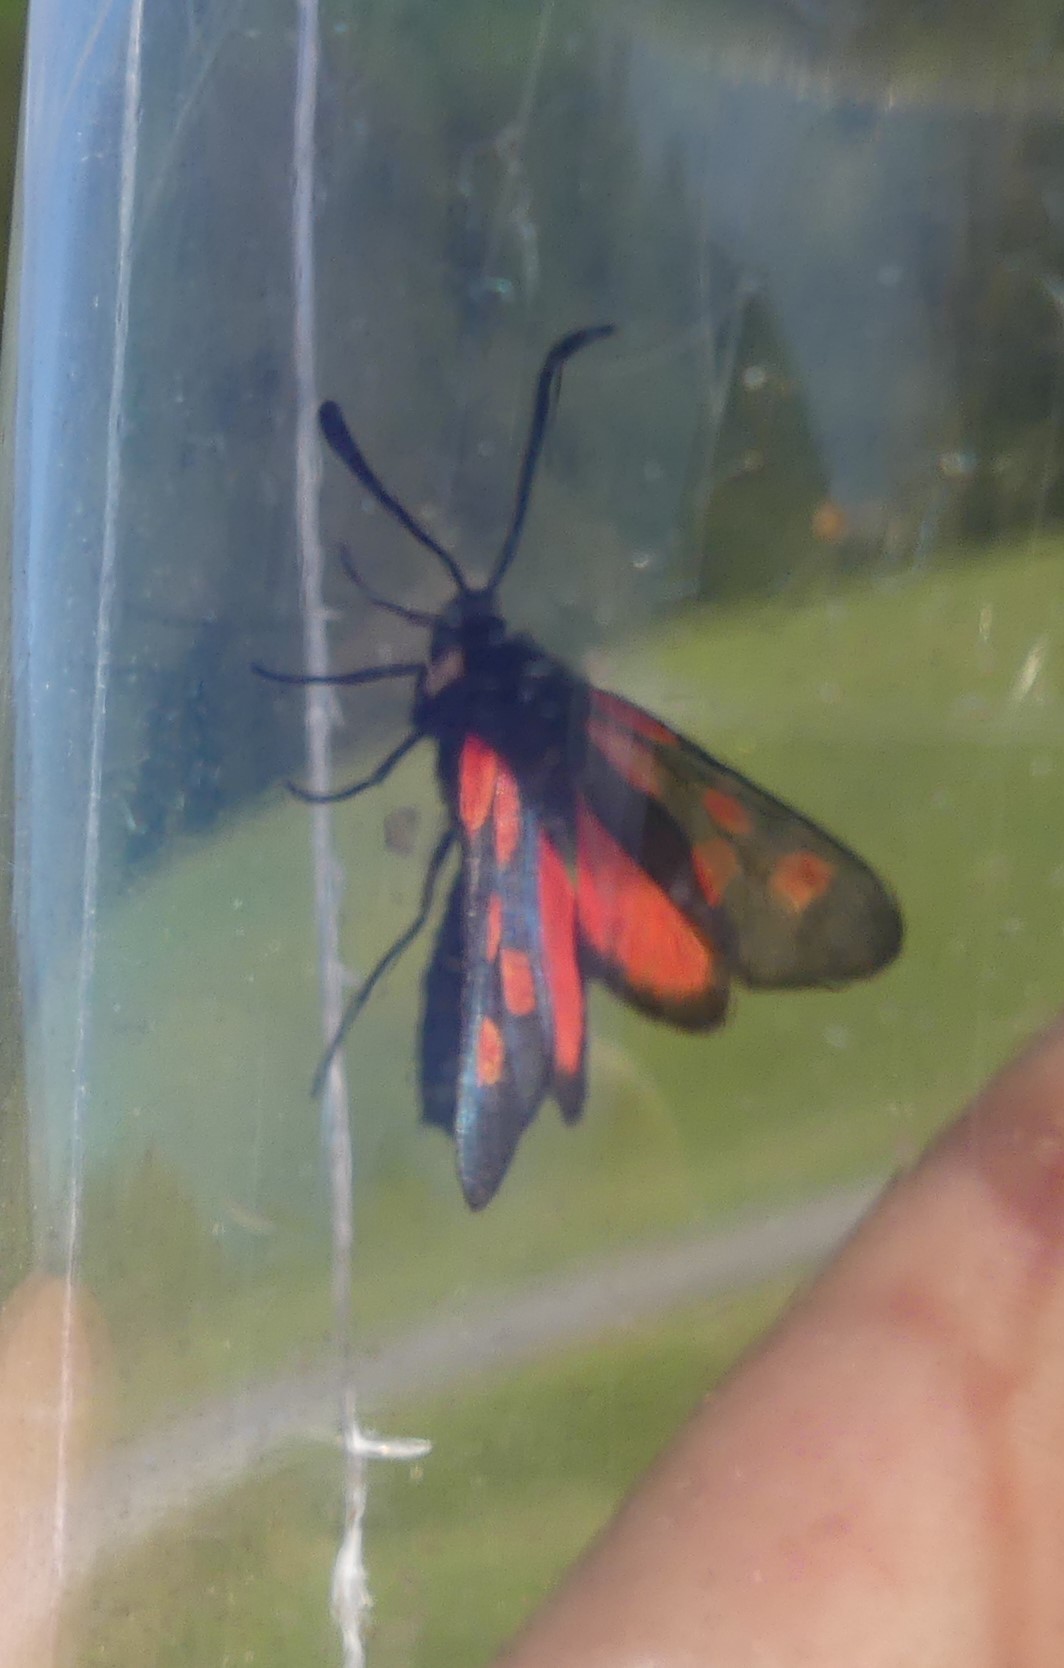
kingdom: Animalia
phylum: Arthropoda
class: Insecta
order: Lepidoptera
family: Zygaenidae
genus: Zygaena
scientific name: Zygaena viciae
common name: New forest burnet
